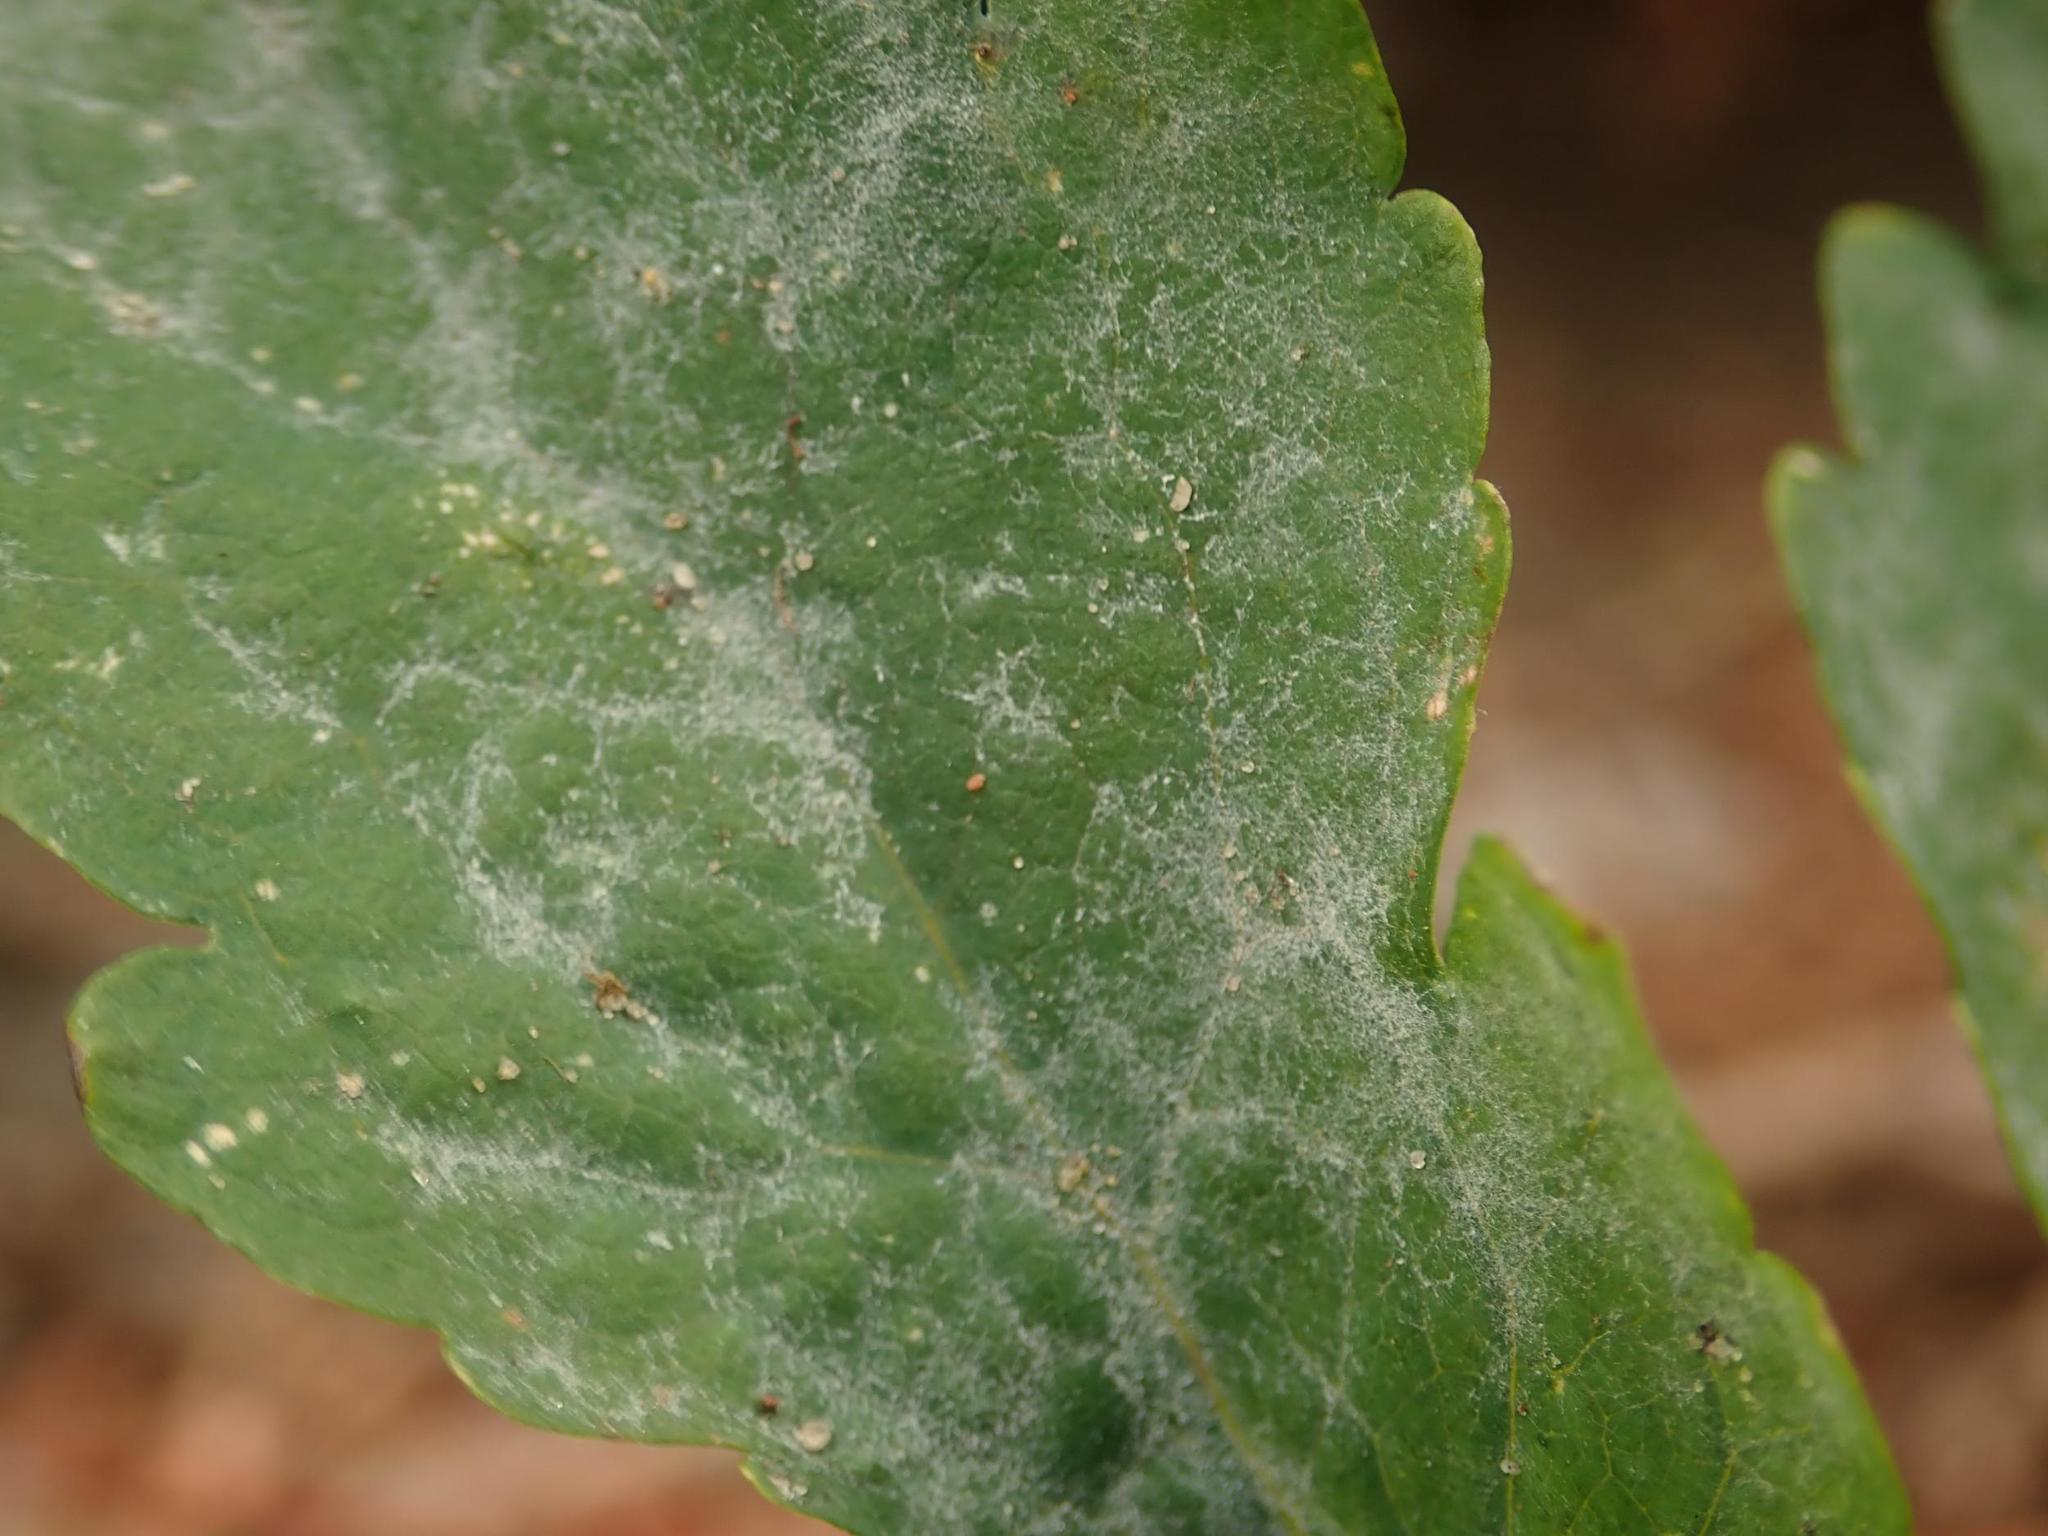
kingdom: Fungi
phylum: Ascomycota
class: Leotiomycetes
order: Helotiales
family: Erysiphaceae
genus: Erysiphe
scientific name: Erysiphe macleayae
